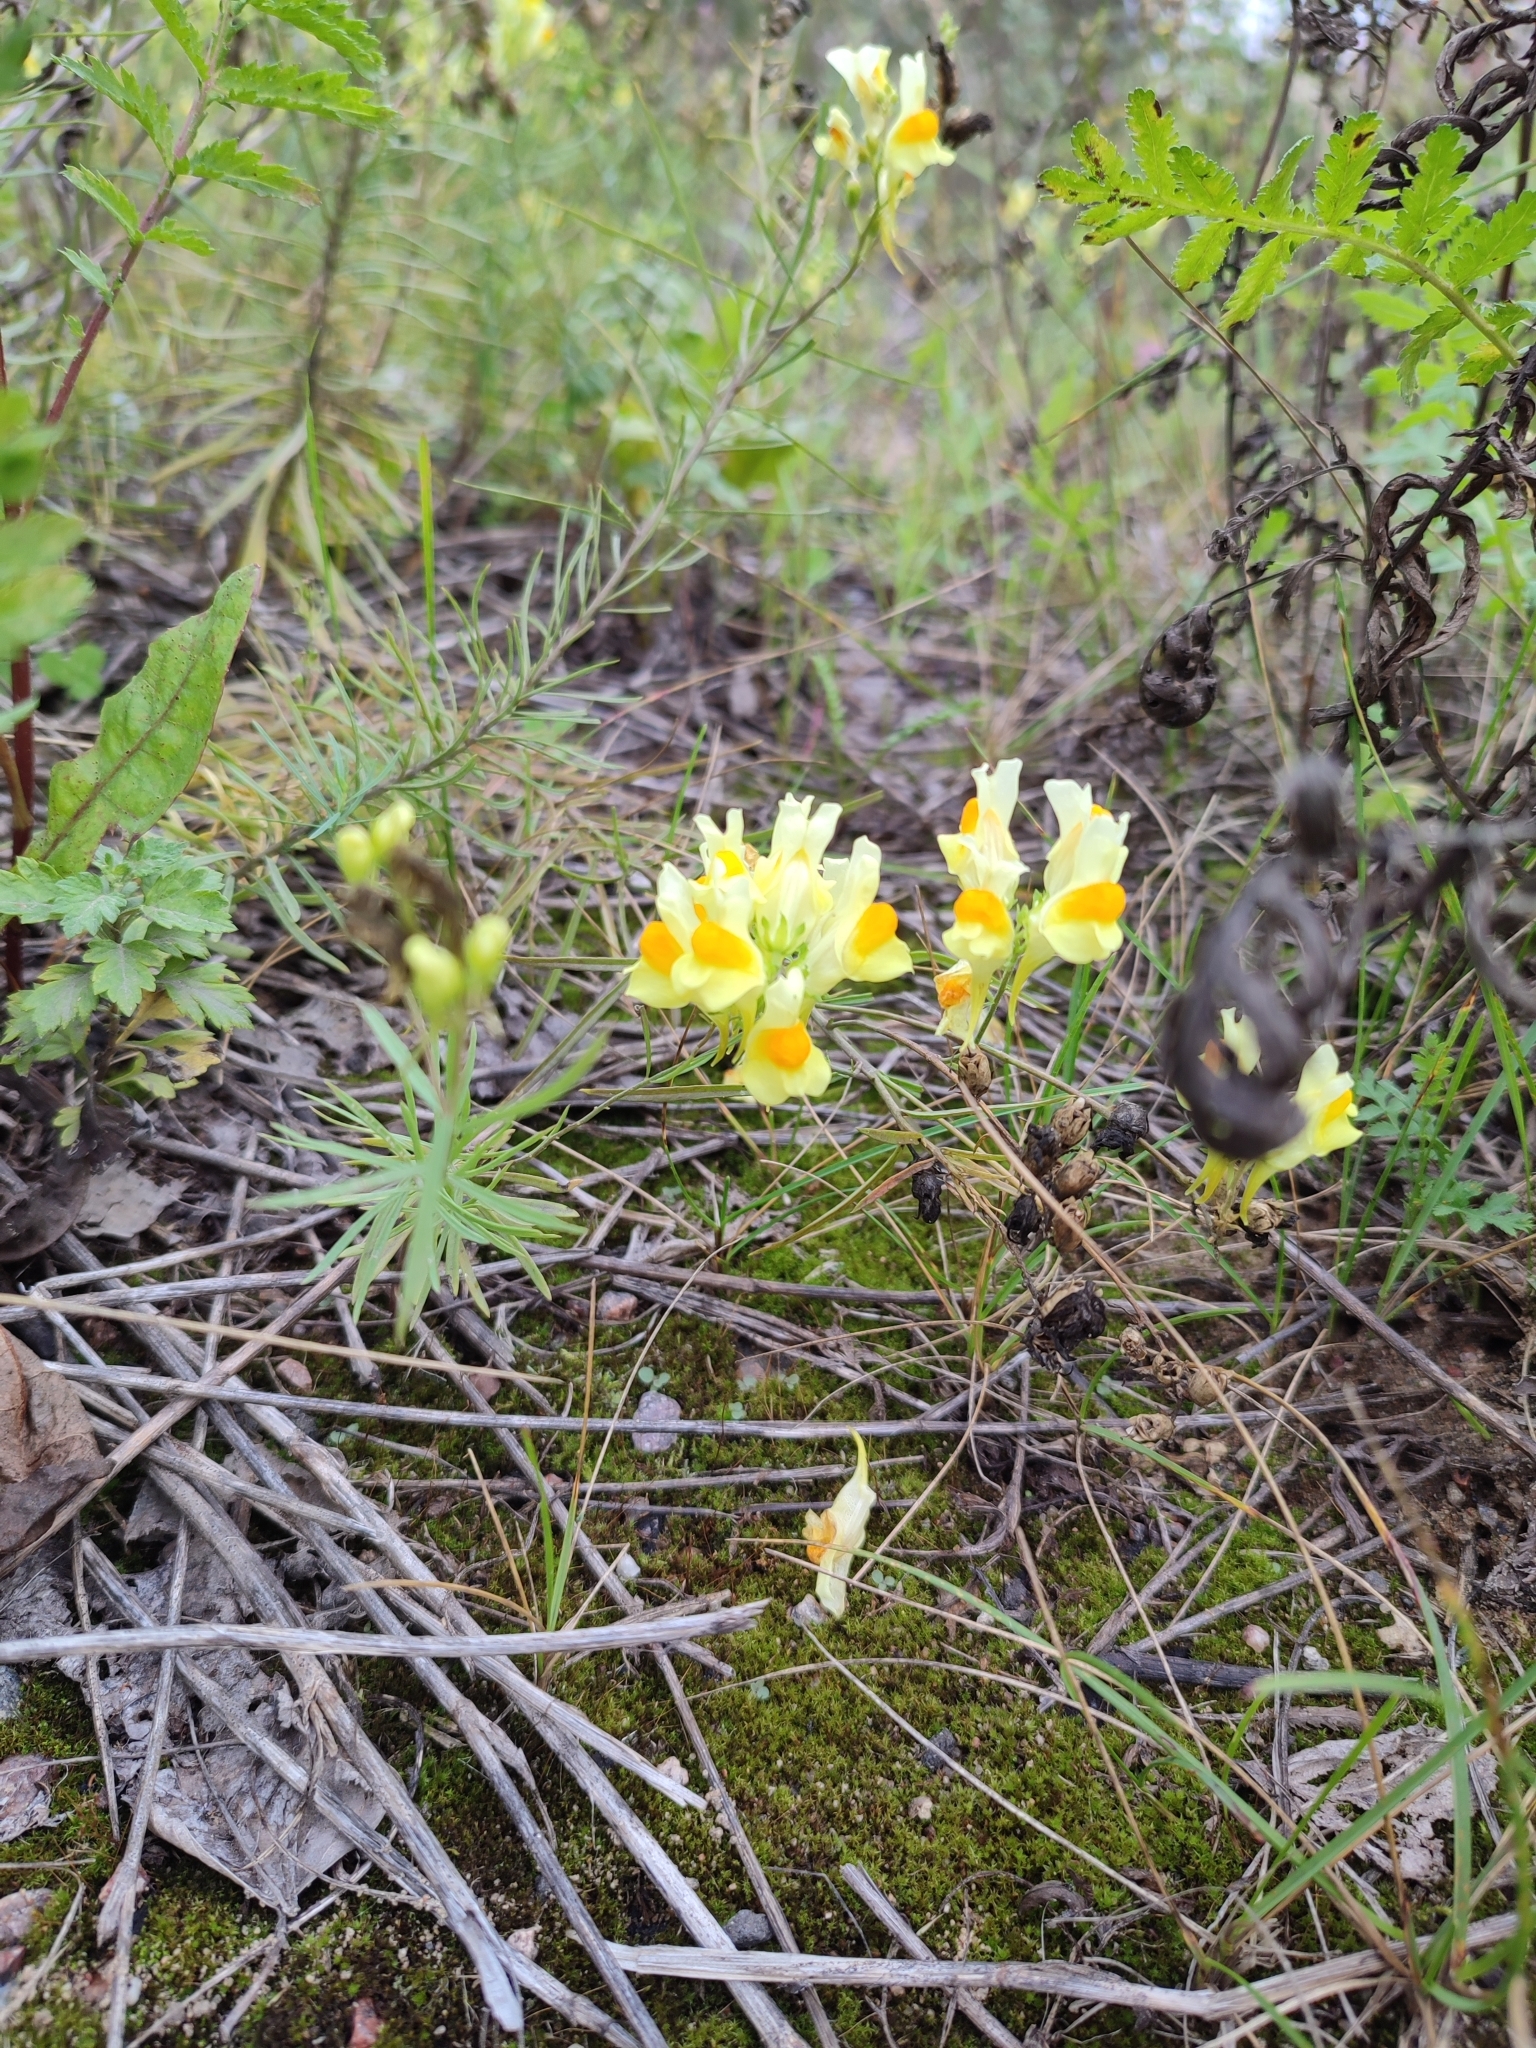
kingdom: Plantae
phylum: Tracheophyta
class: Magnoliopsida
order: Lamiales
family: Plantaginaceae
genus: Linaria
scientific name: Linaria vulgaris
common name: Butter and eggs
